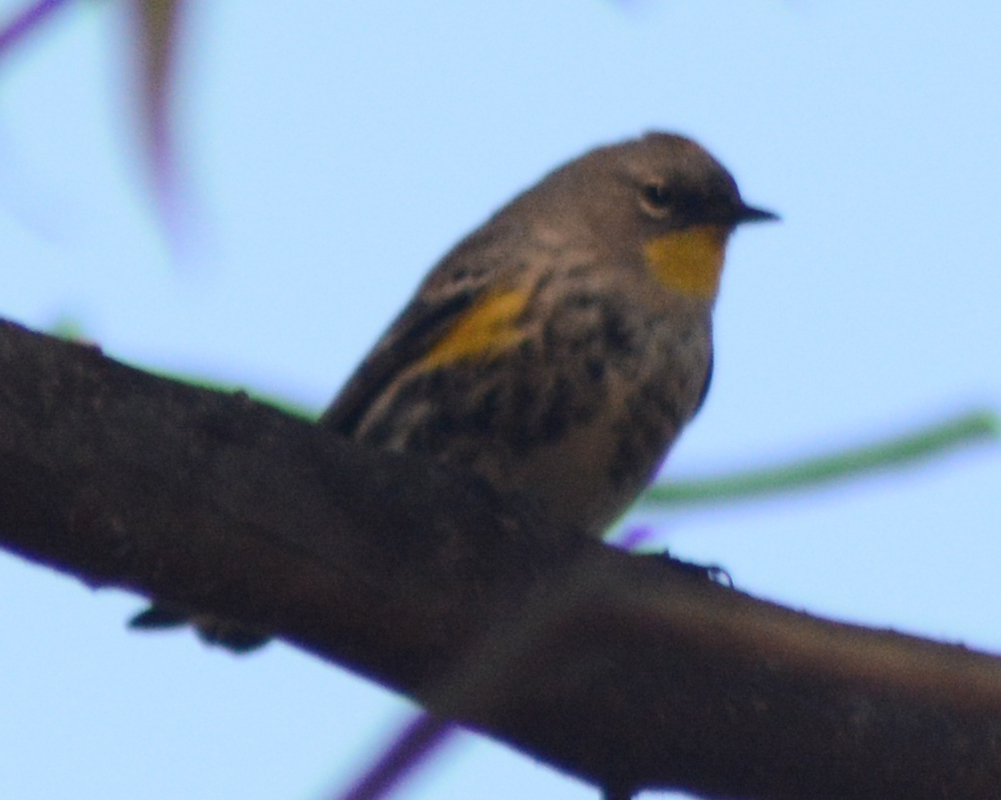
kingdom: Animalia
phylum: Chordata
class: Aves
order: Passeriformes
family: Parulidae
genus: Setophaga
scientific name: Setophaga auduboni
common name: Audubon's warbler
